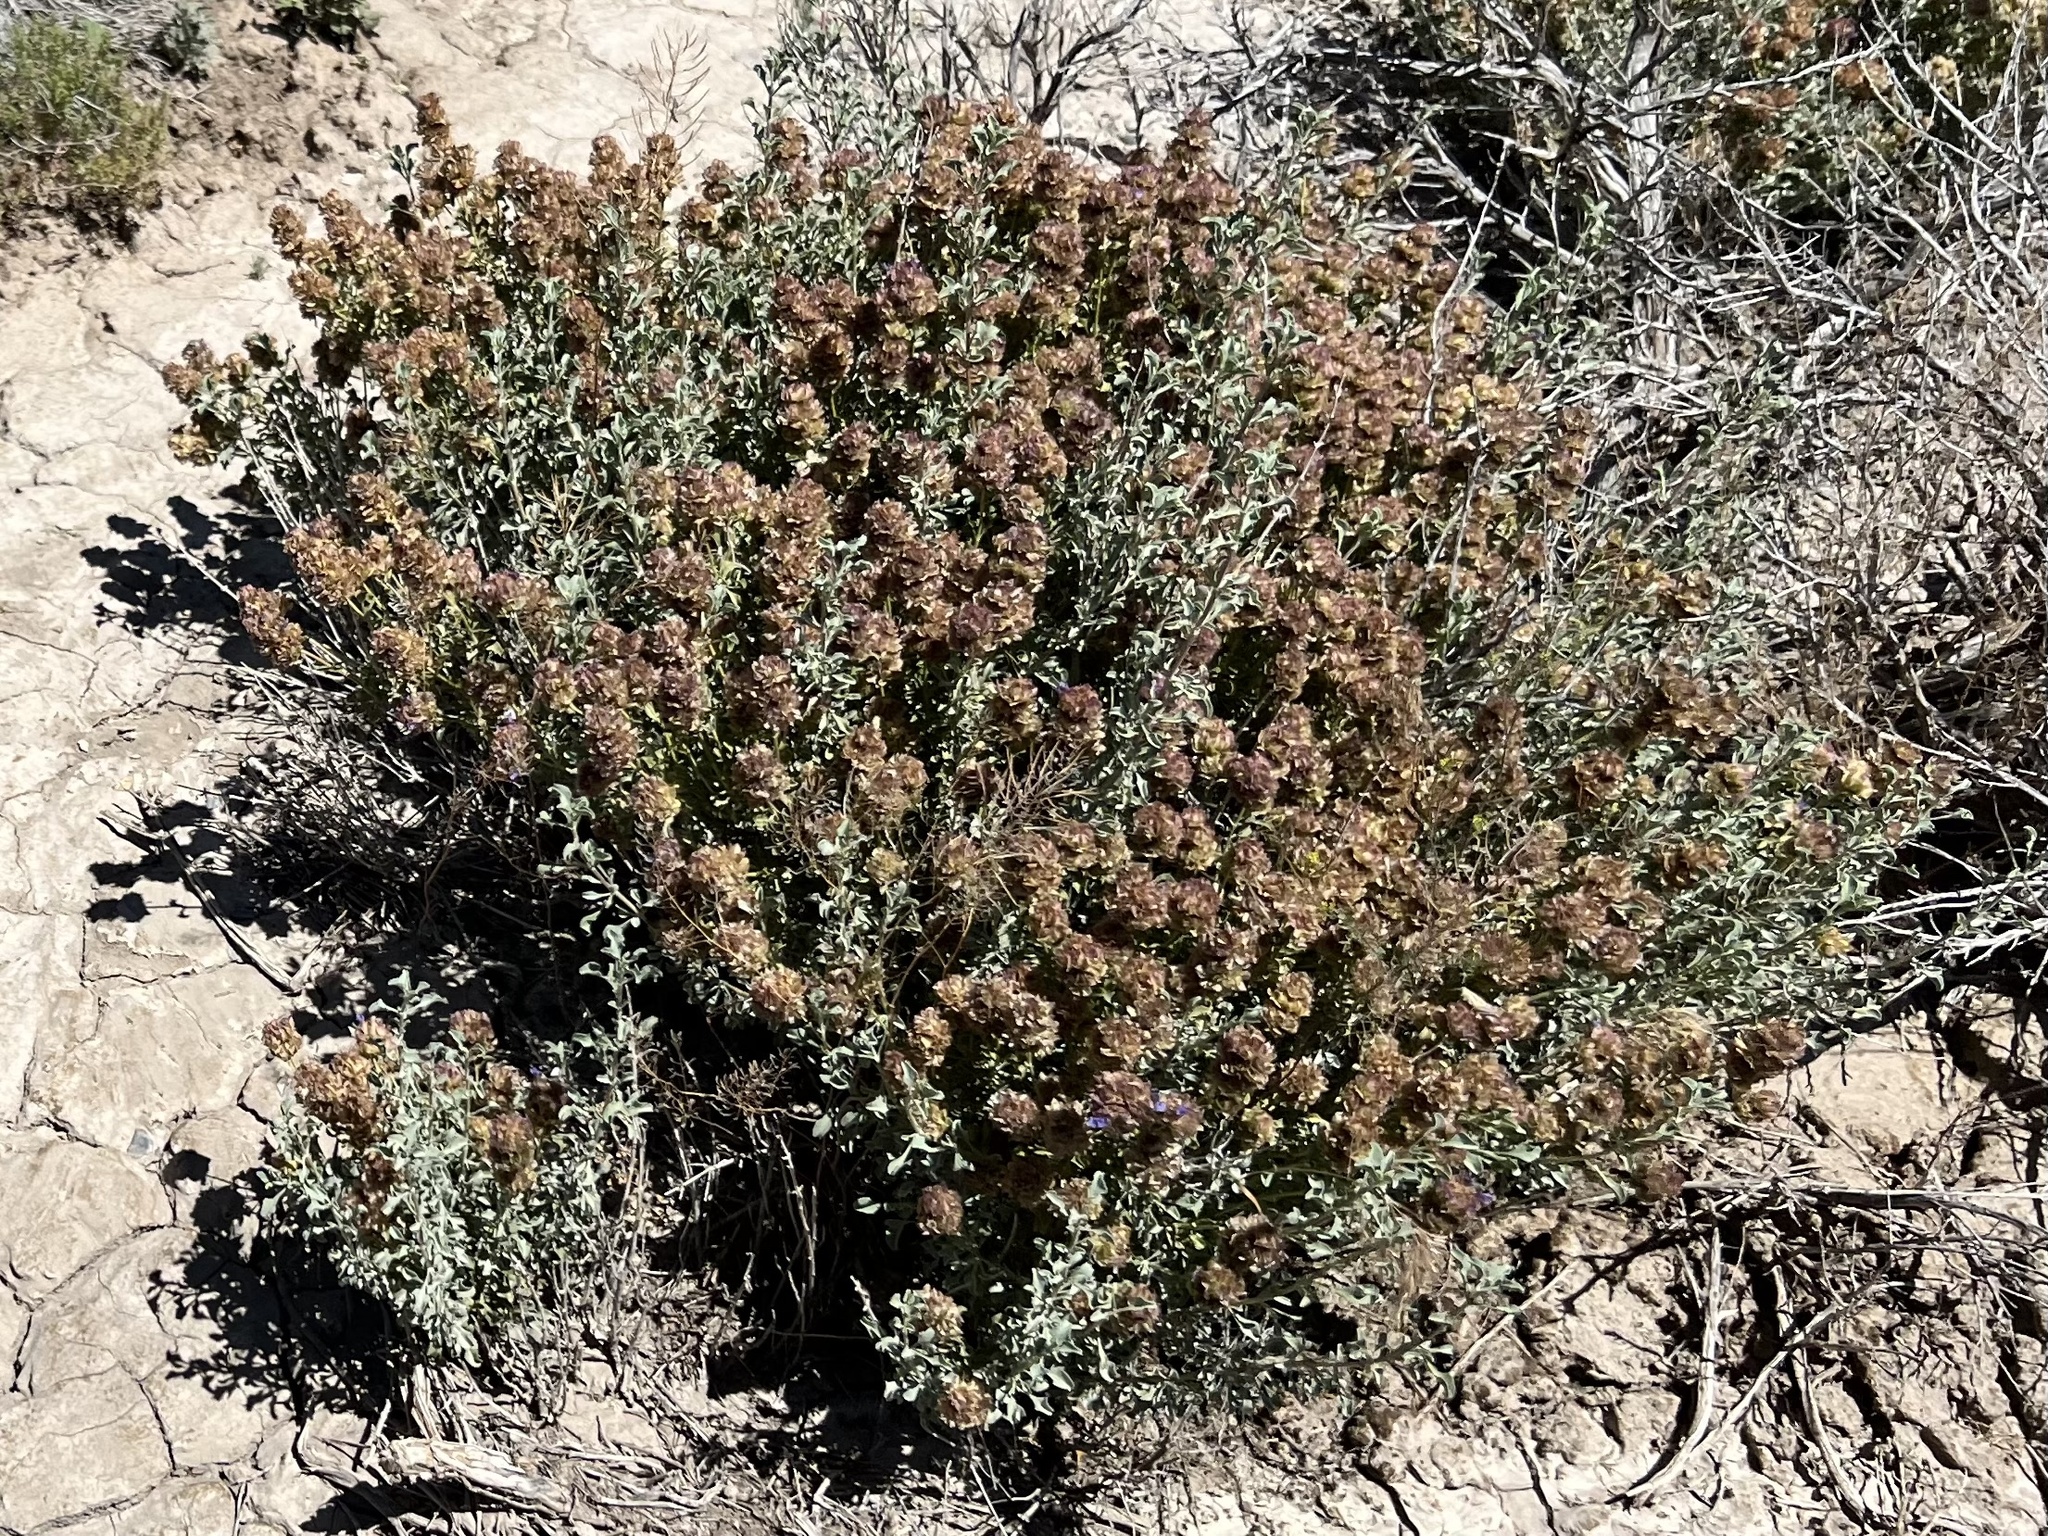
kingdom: Plantae
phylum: Tracheophyta
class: Magnoliopsida
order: Lamiales
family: Lamiaceae
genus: Salvia
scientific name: Salvia dorrii
